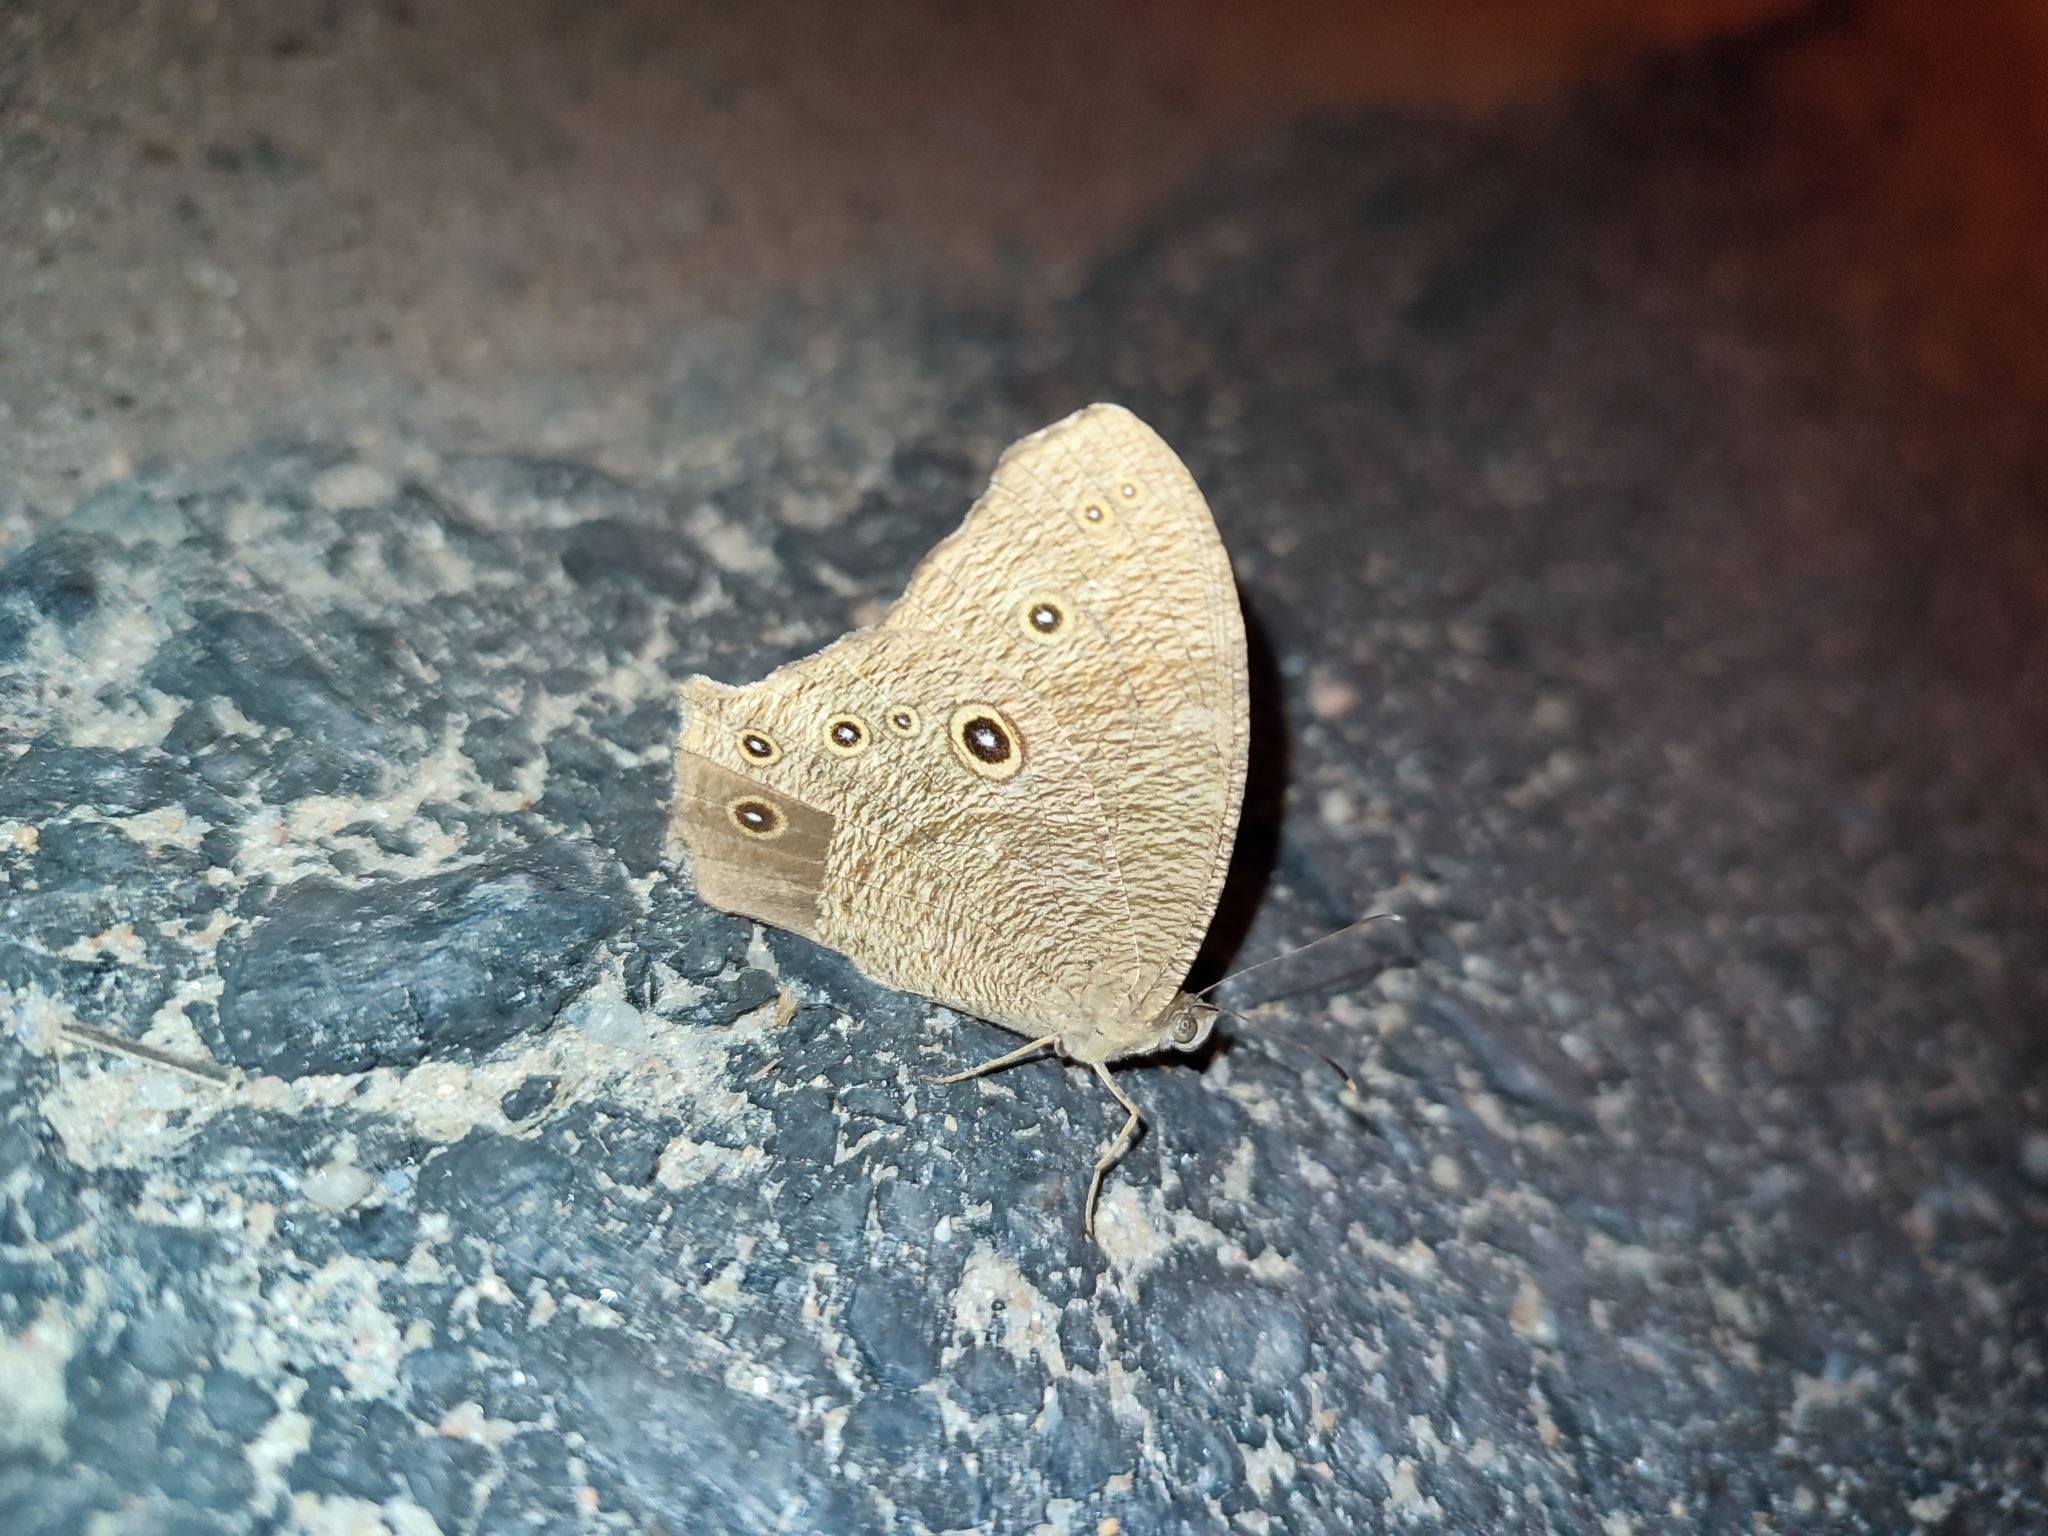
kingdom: Animalia
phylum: Arthropoda
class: Insecta
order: Lepidoptera
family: Nymphalidae
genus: Melanitis
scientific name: Melanitis leda
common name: Twilight brown
